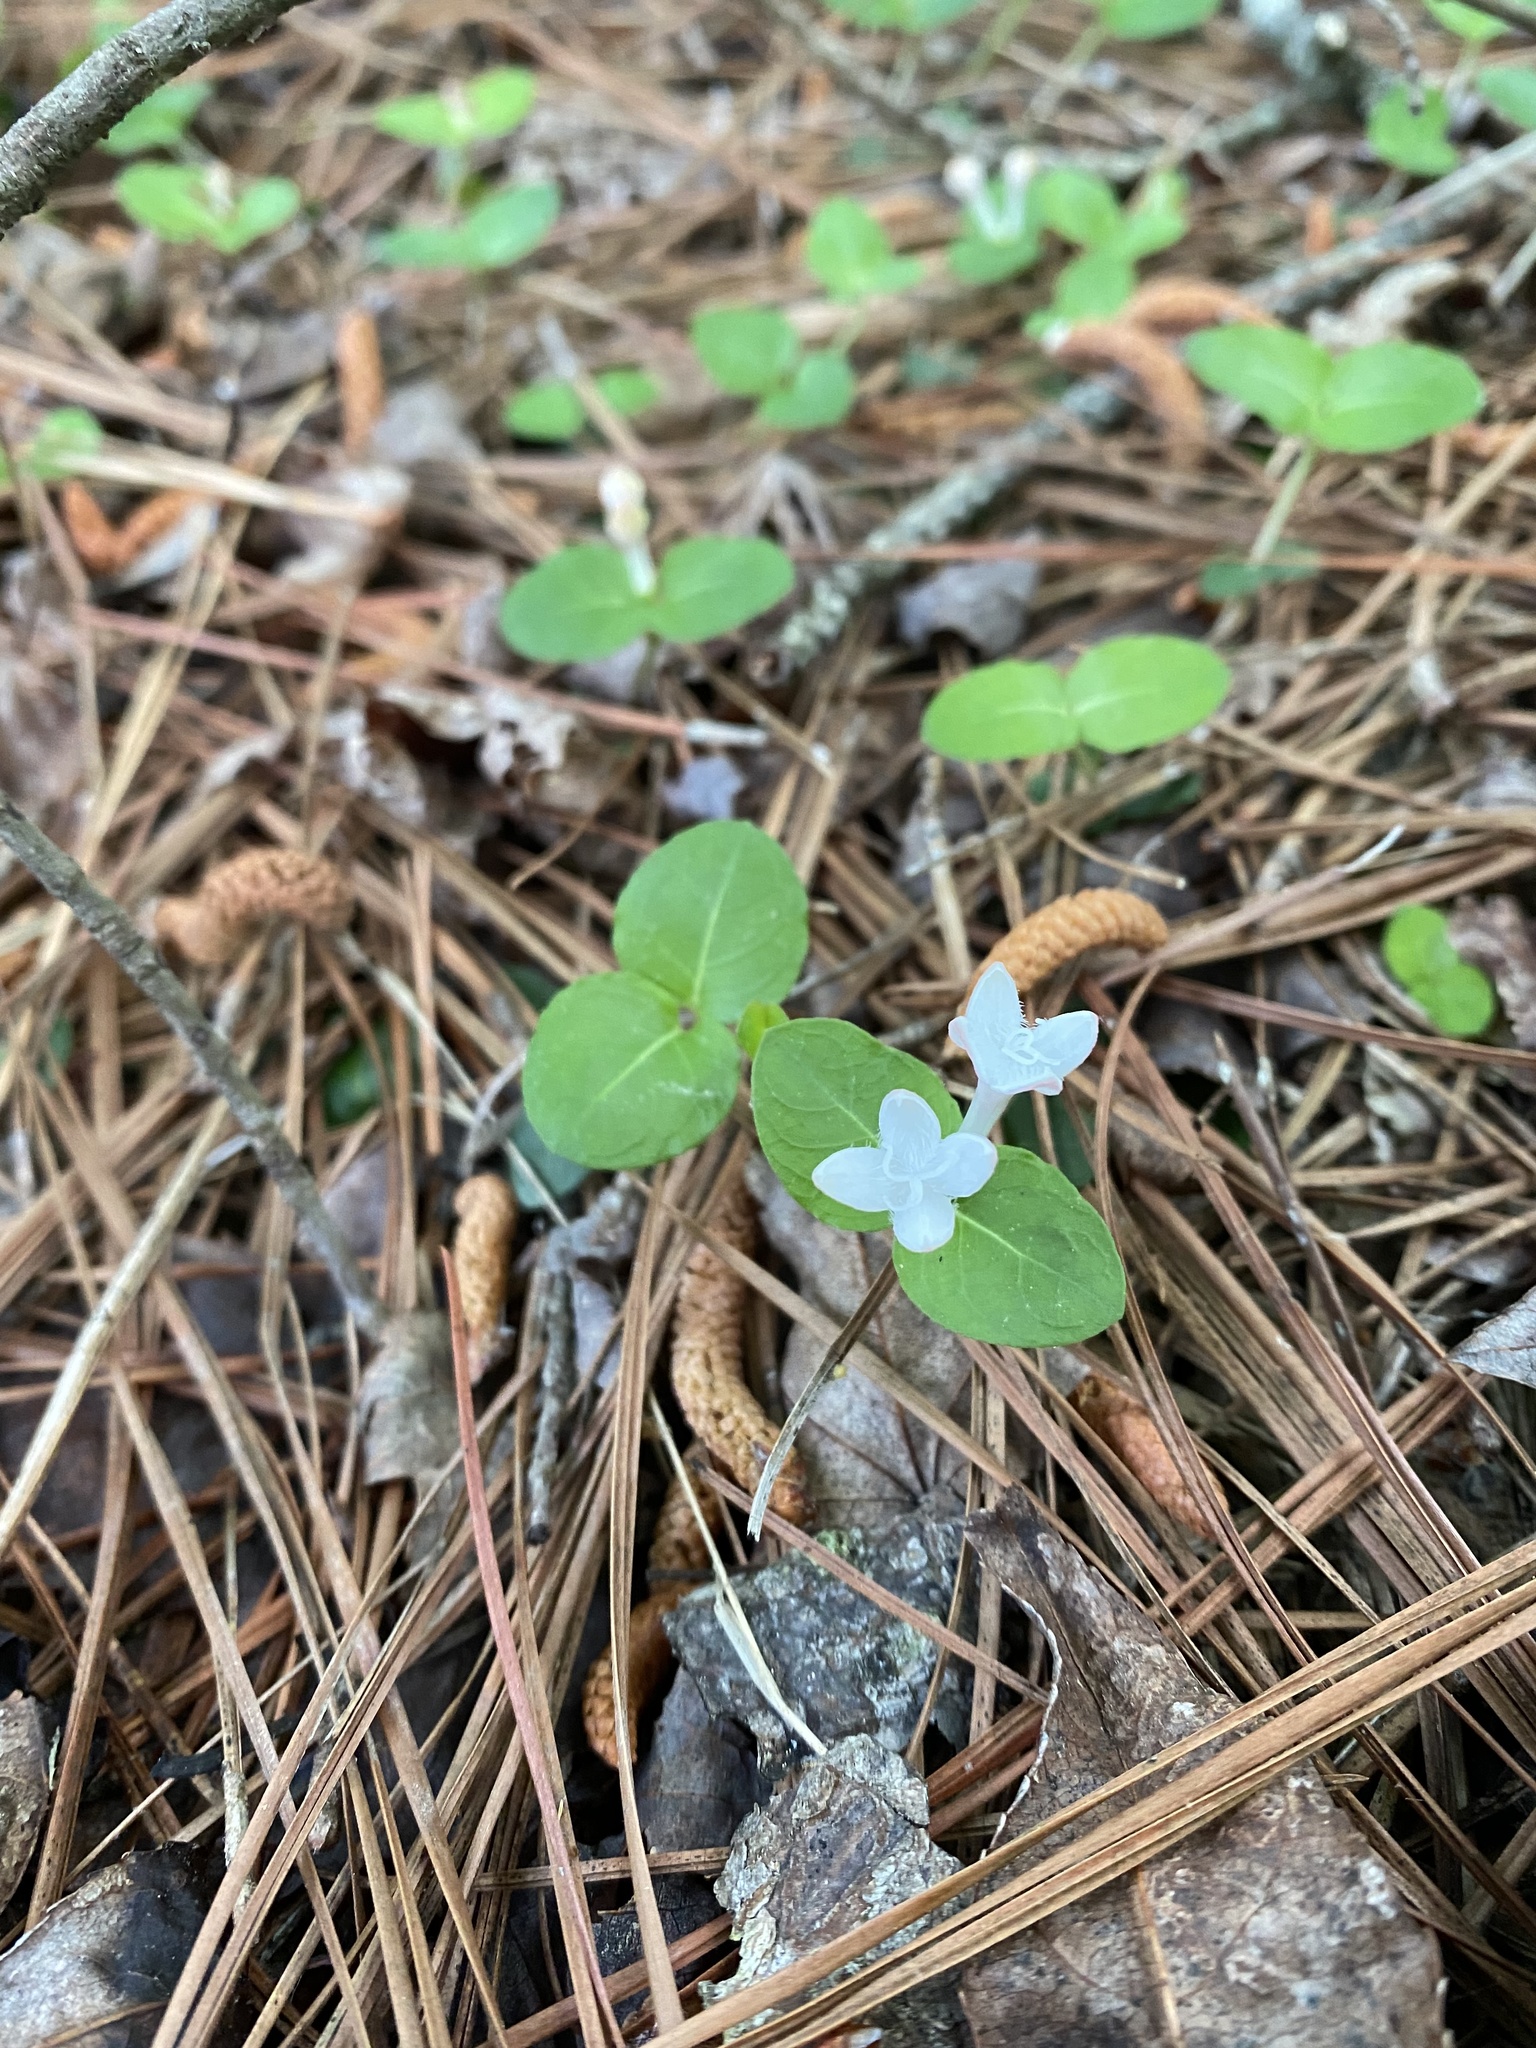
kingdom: Plantae
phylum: Tracheophyta
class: Magnoliopsida
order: Gentianales
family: Rubiaceae
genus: Mitchella
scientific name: Mitchella repens
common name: Partridge-berry
